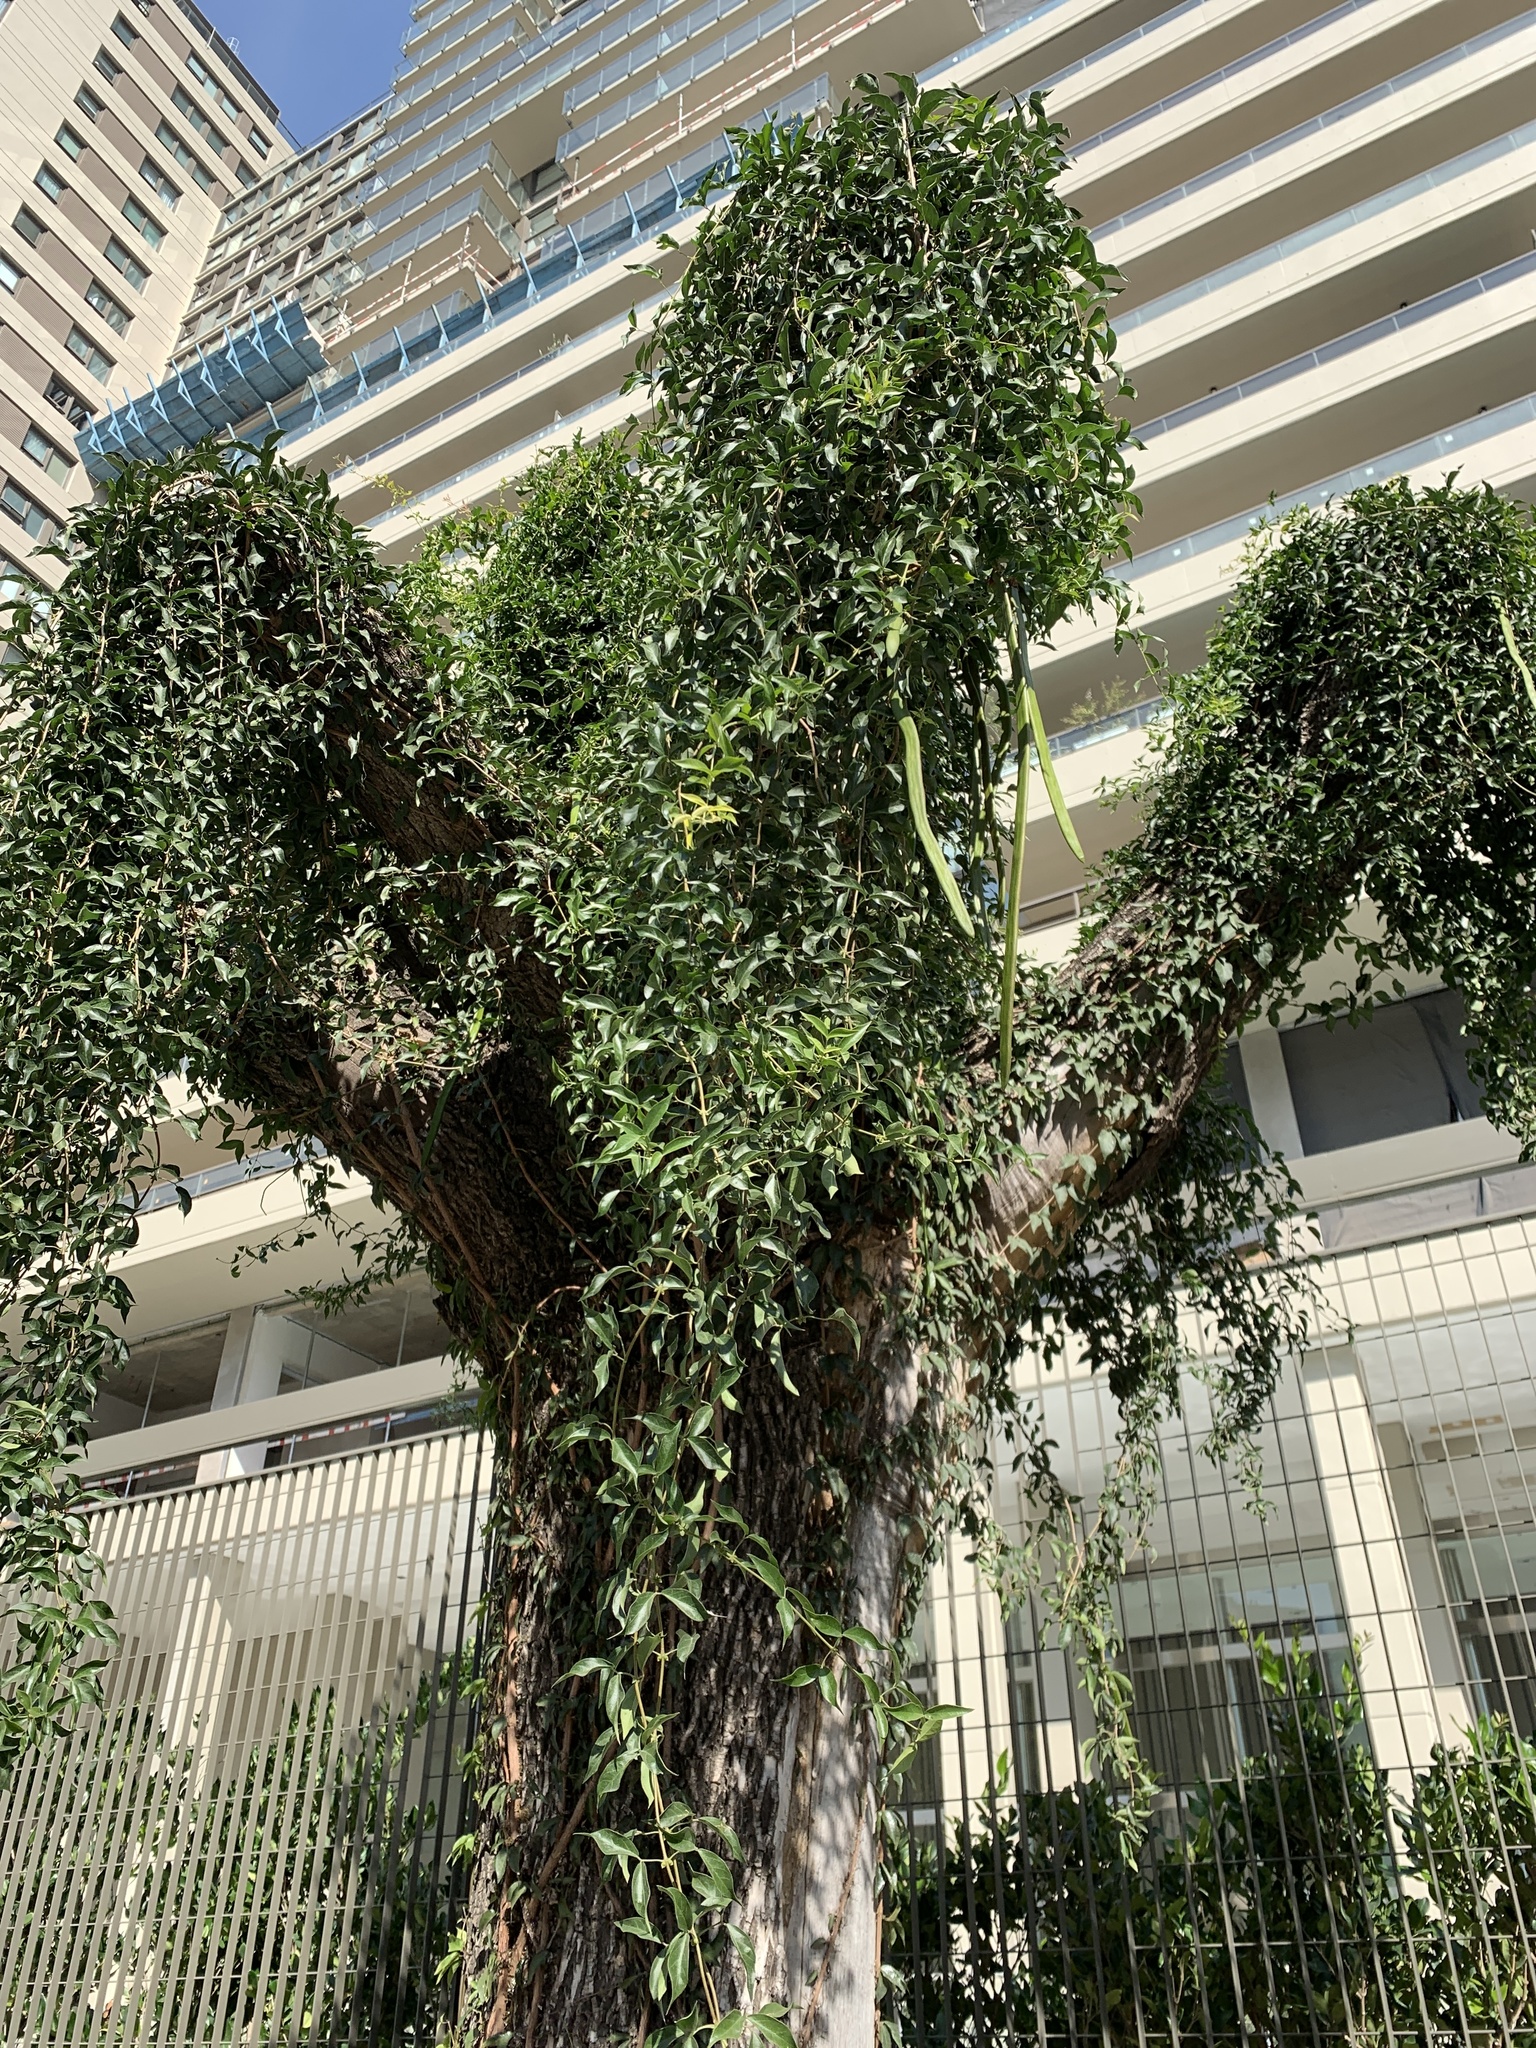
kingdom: Plantae
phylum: Tracheophyta
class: Magnoliopsida
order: Lamiales
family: Bignoniaceae
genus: Dolichandra
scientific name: Dolichandra unguis-cati
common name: Catclaw vine
